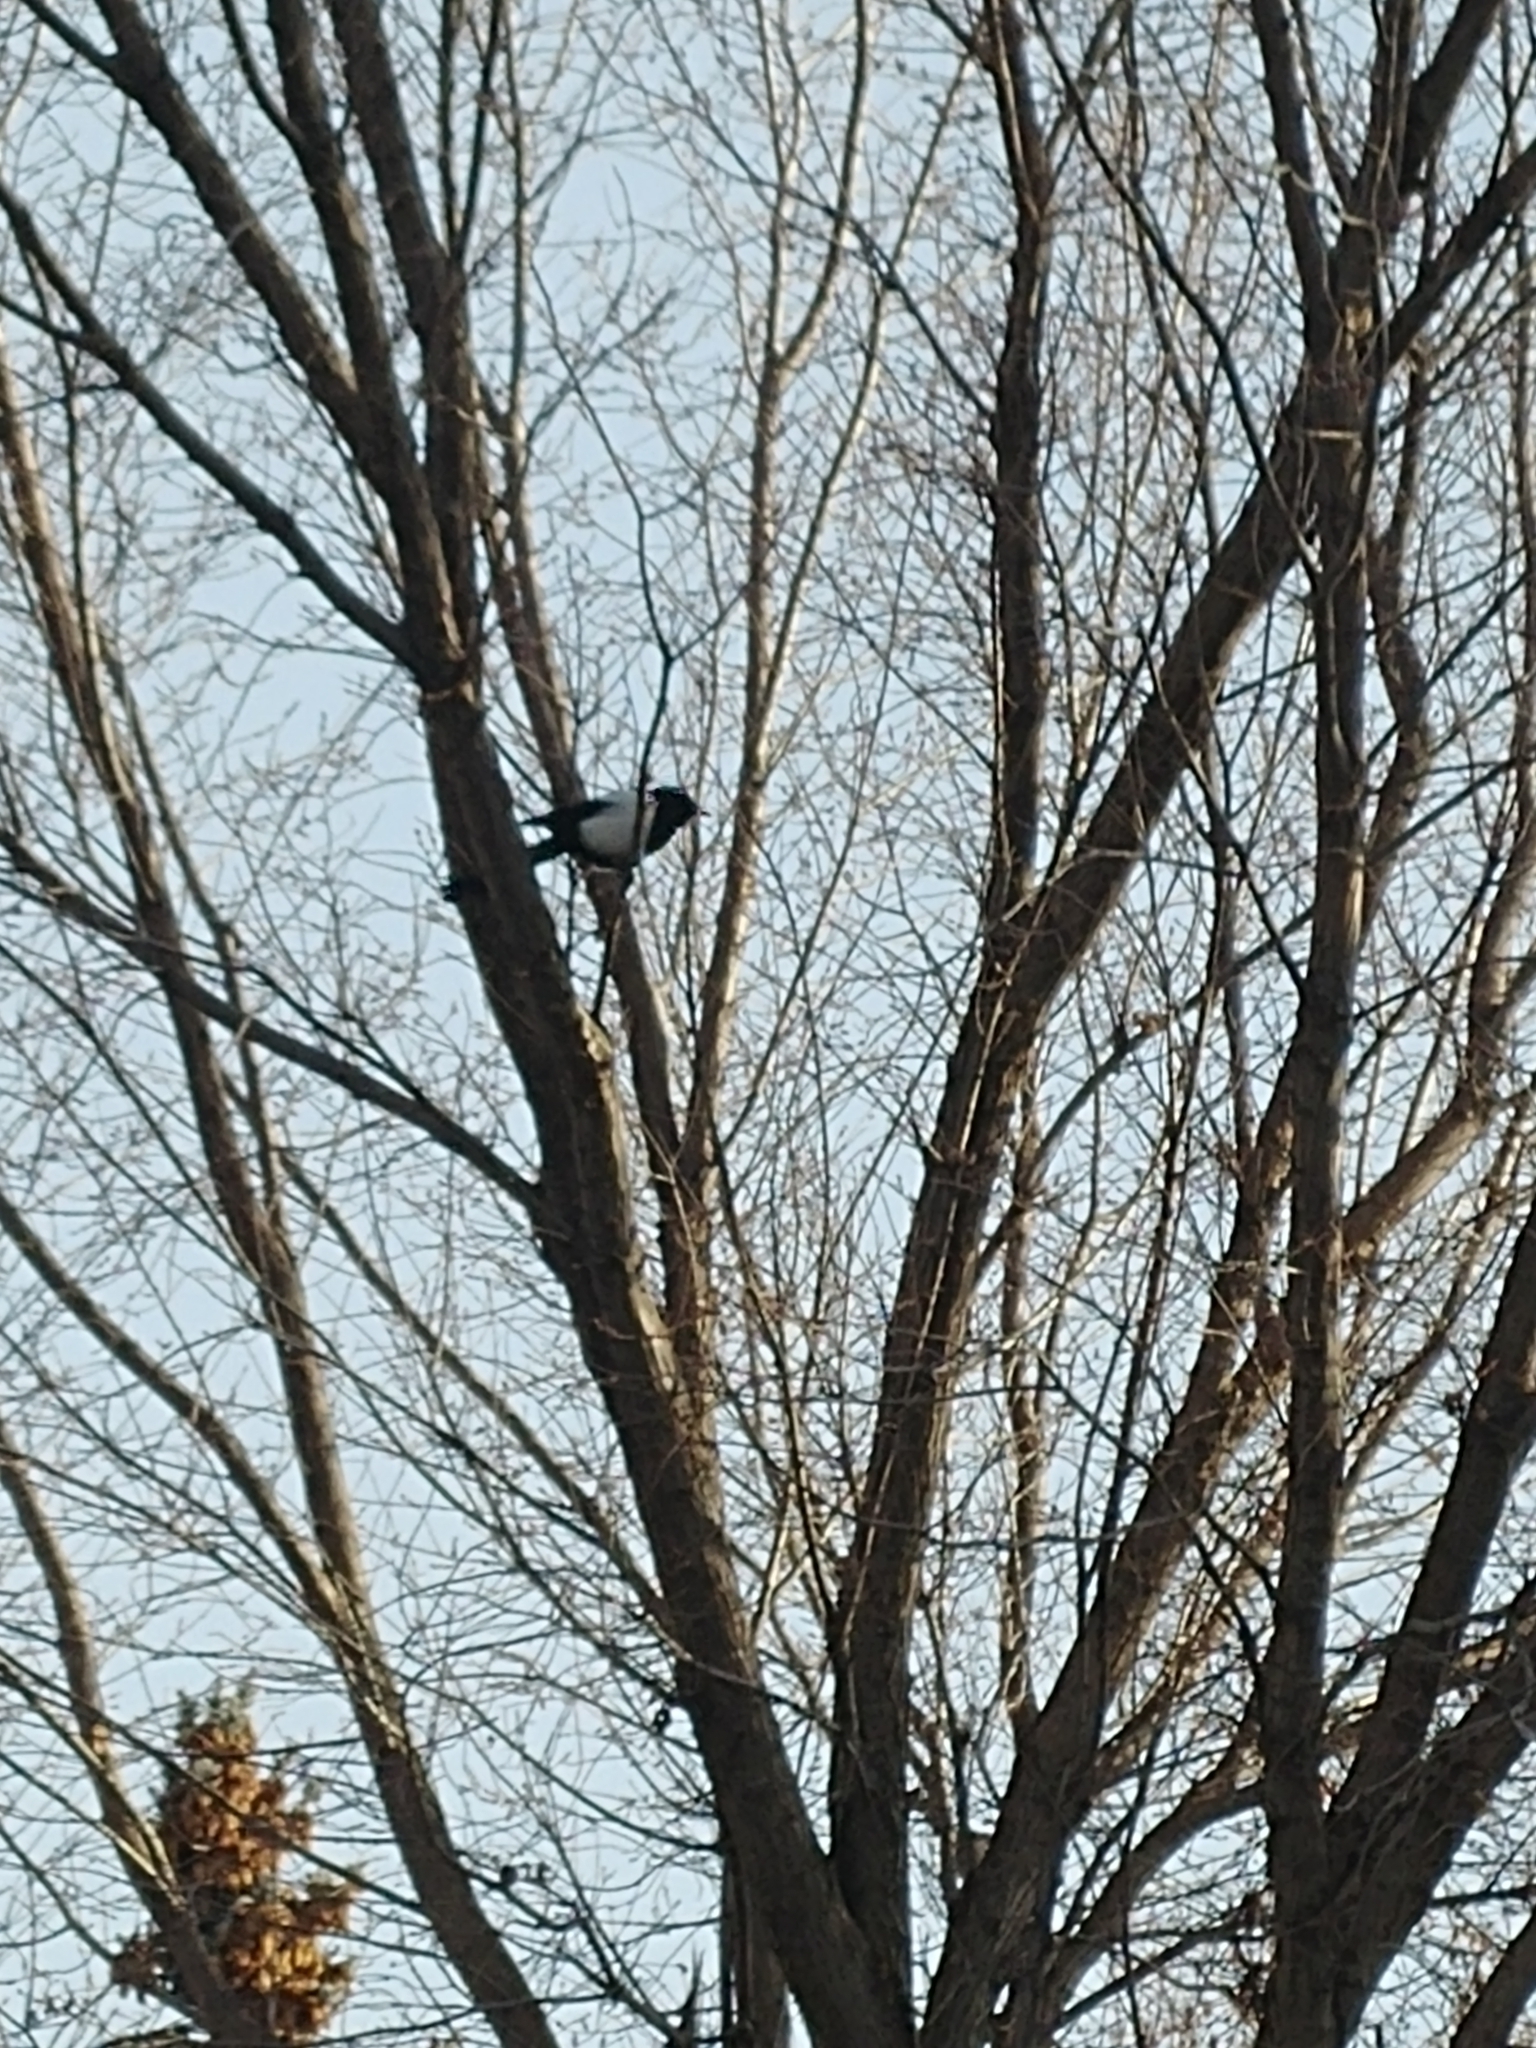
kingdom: Animalia
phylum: Chordata
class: Aves
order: Passeriformes
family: Corvidae
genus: Pica
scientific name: Pica hudsonia
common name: Black-billed magpie
